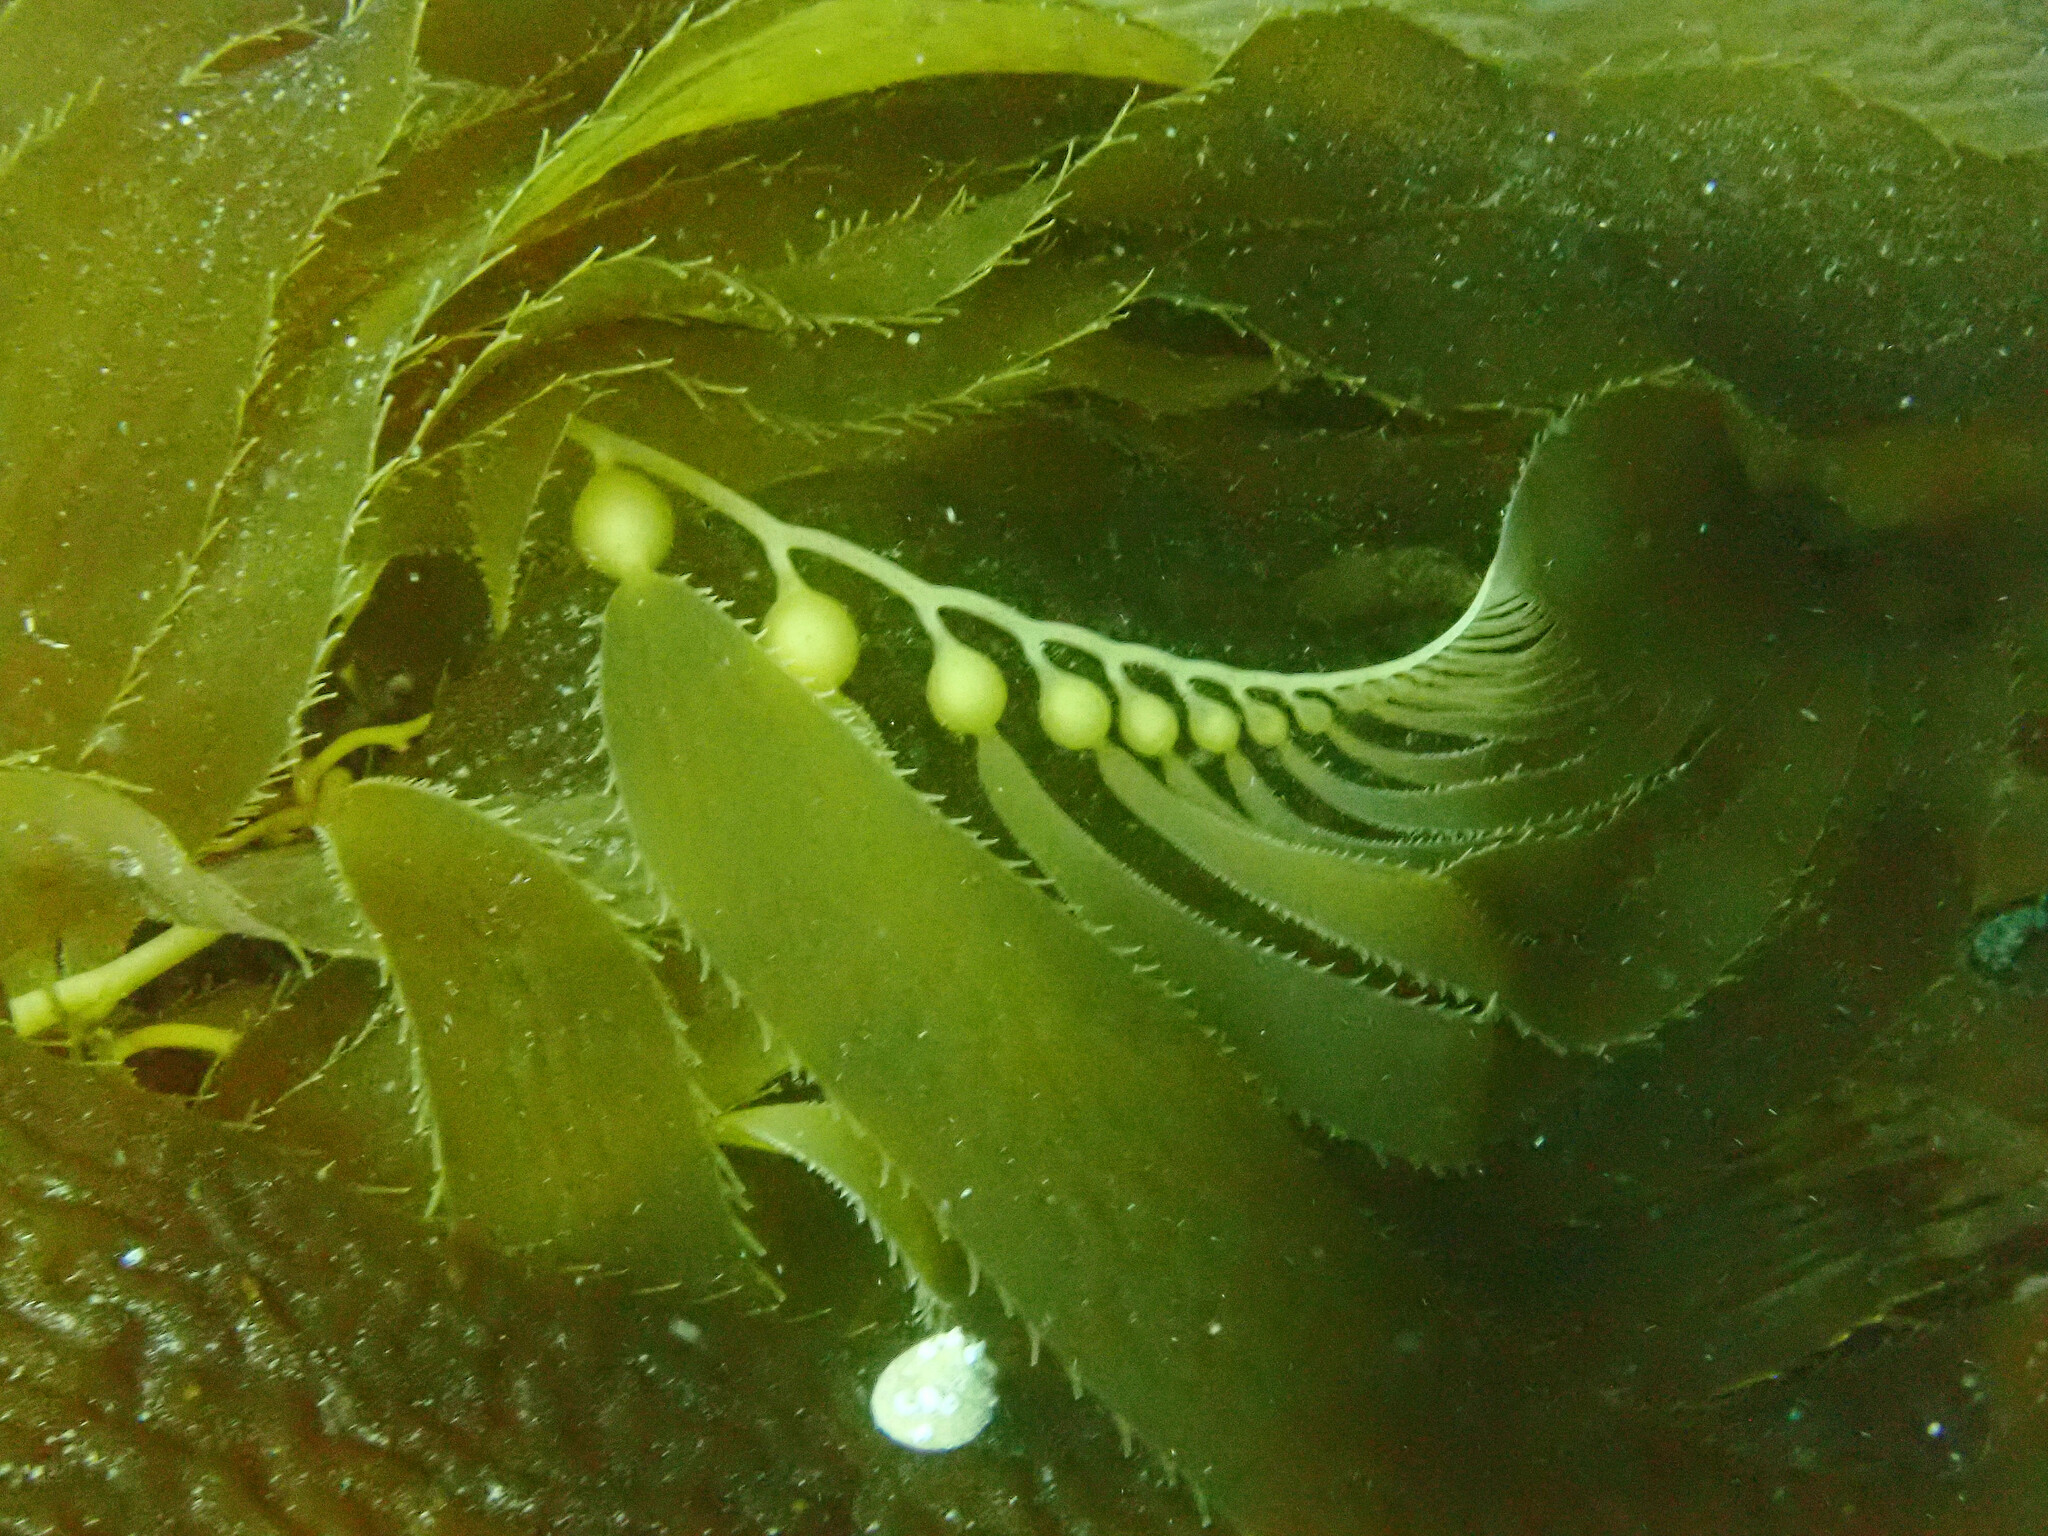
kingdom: Chromista
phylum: Ochrophyta
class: Phaeophyceae
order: Laminariales
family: Laminariaceae
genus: Macrocystis
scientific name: Macrocystis pyrifera
